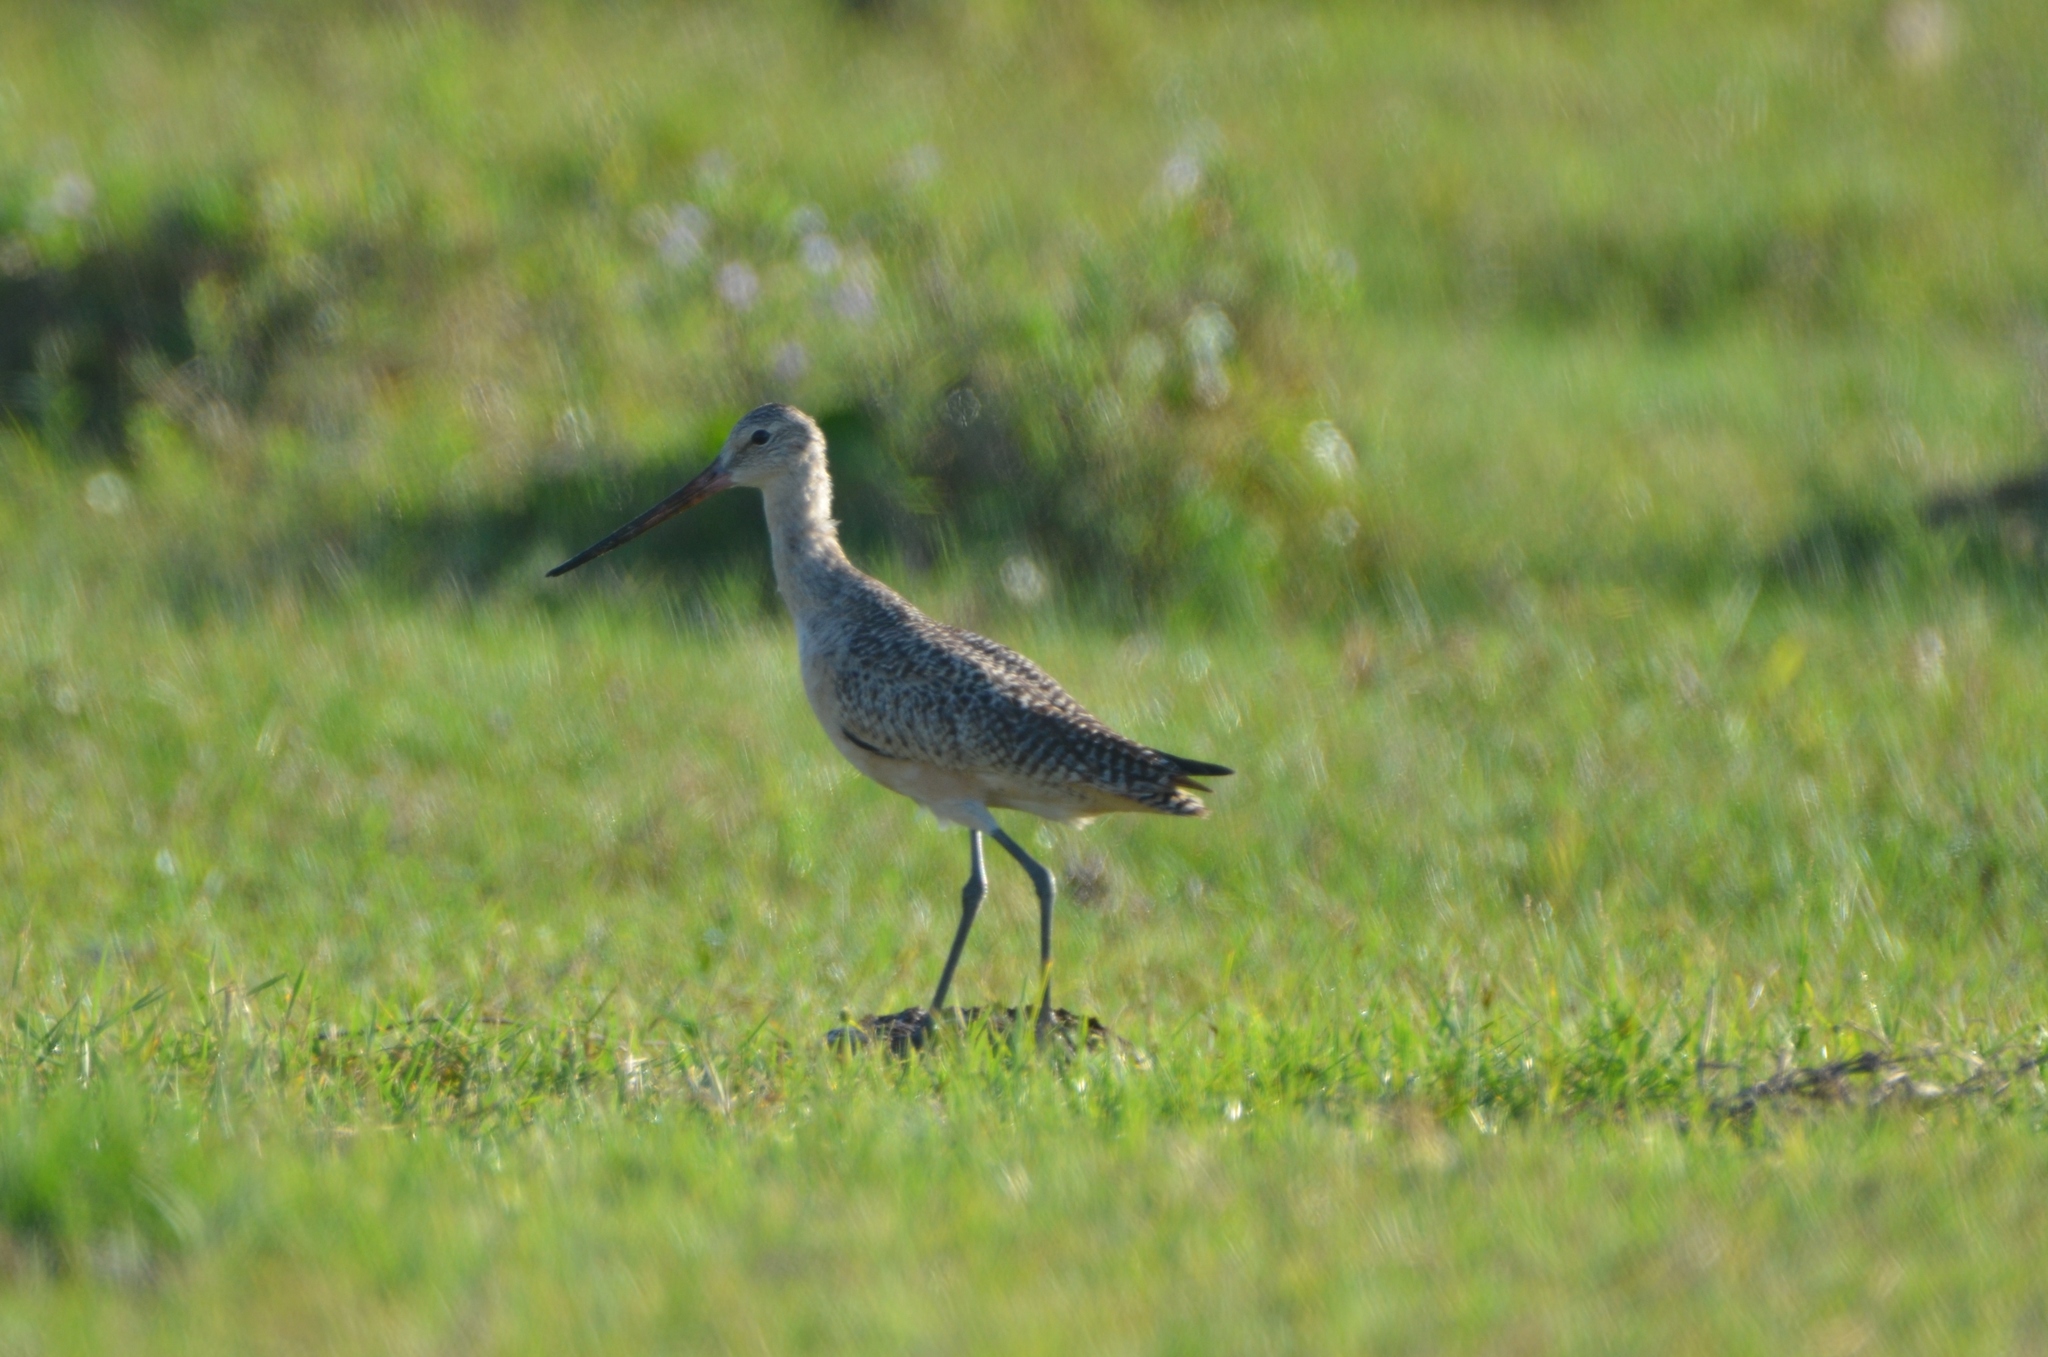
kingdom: Animalia
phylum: Chordata
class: Aves
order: Charadriiformes
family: Scolopacidae
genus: Limosa
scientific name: Limosa fedoa
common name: Marbled godwit
